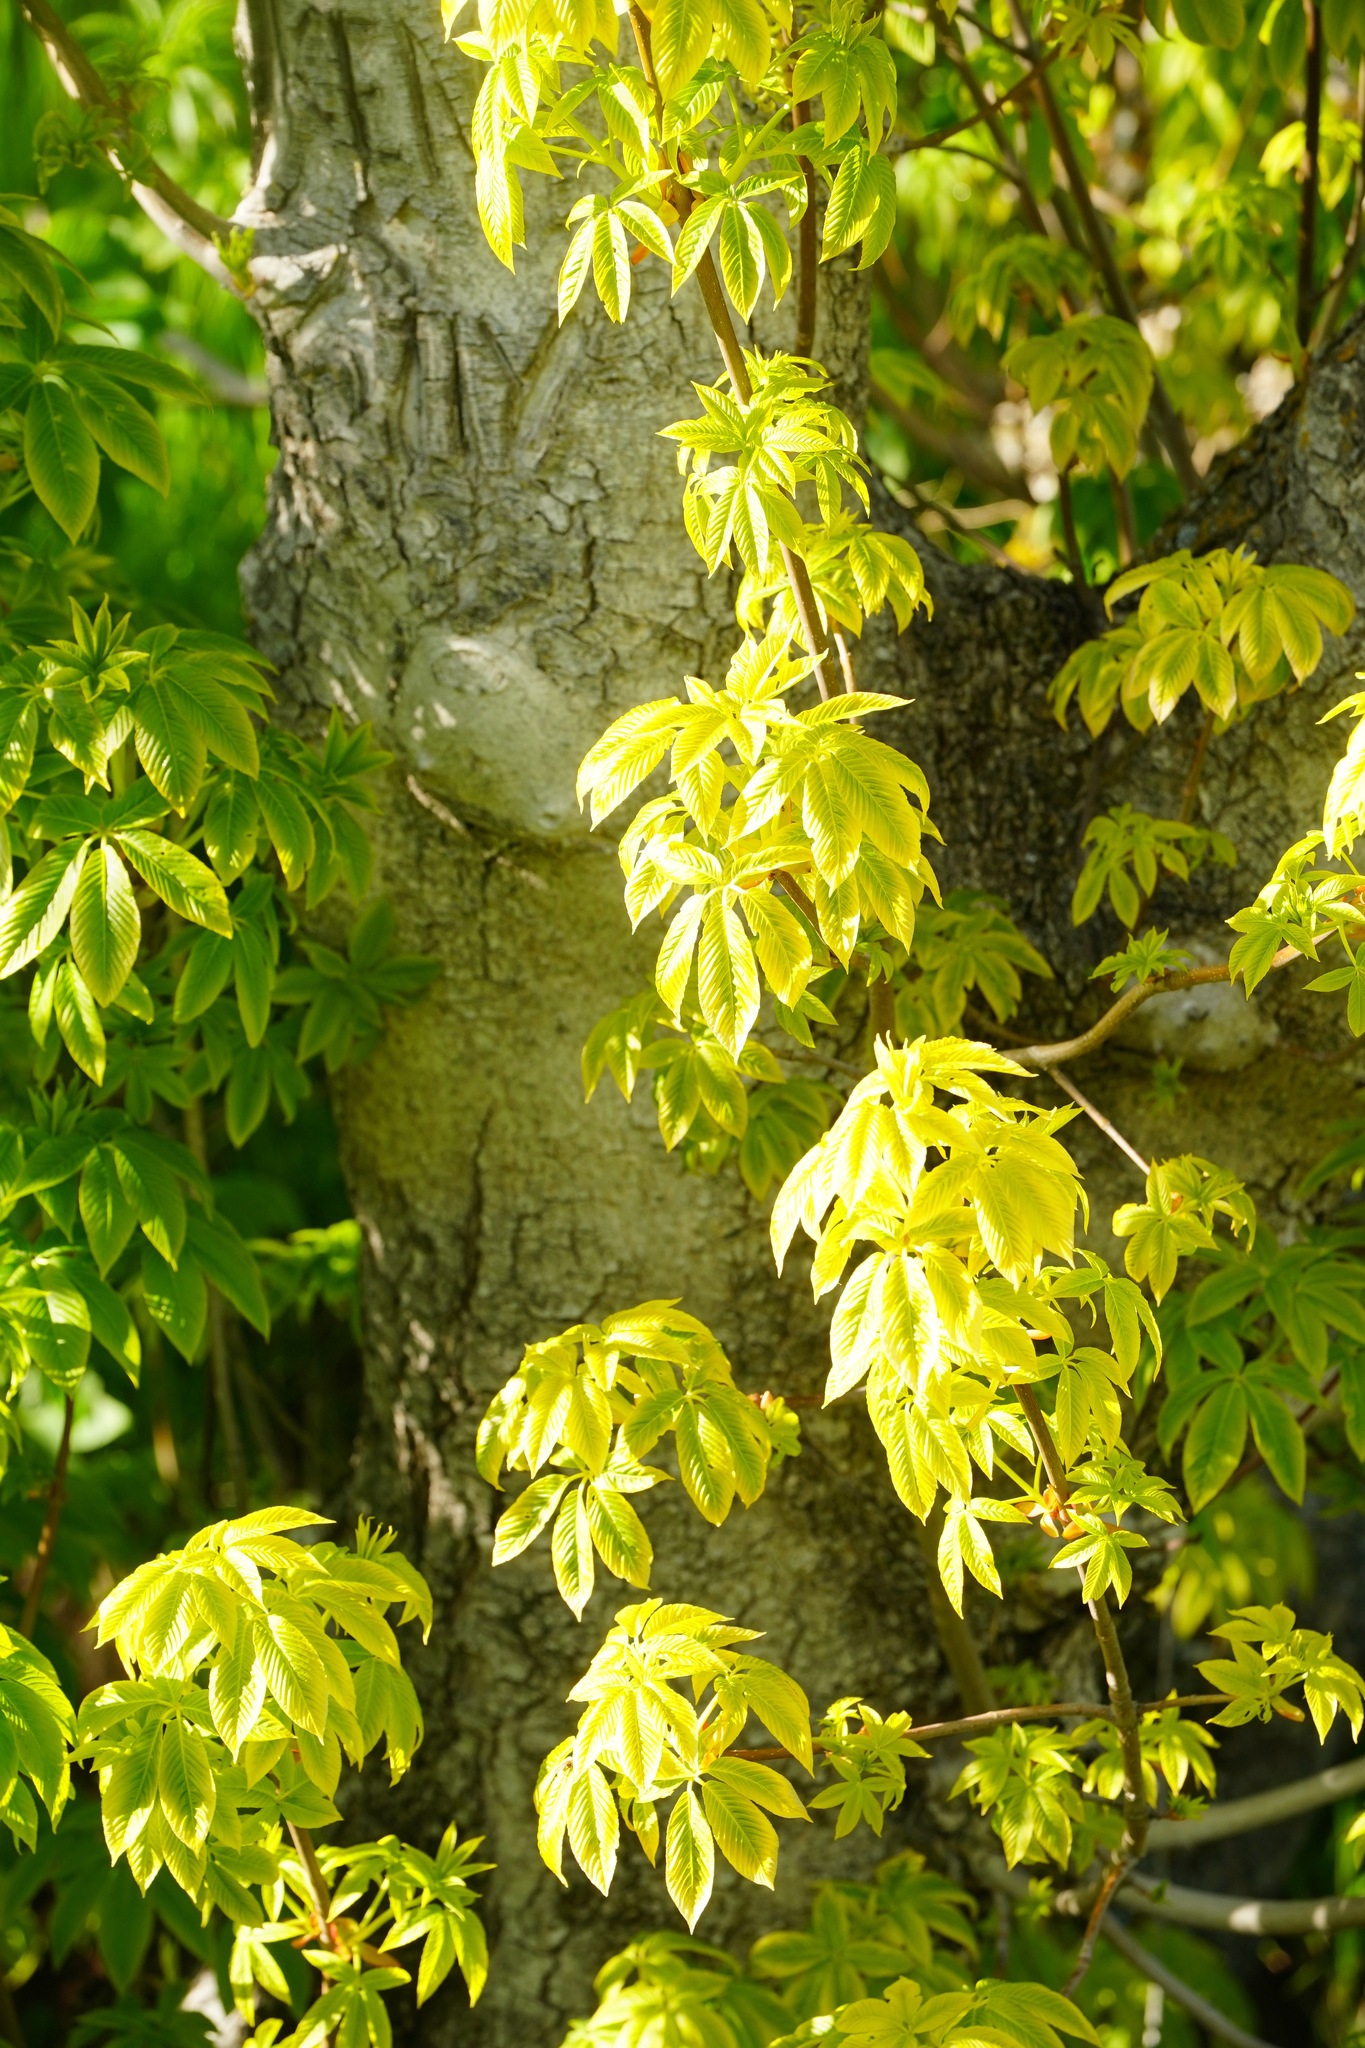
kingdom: Plantae
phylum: Tracheophyta
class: Magnoliopsida
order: Sapindales
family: Sapindaceae
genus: Aesculus
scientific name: Aesculus californica
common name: California buckeye
